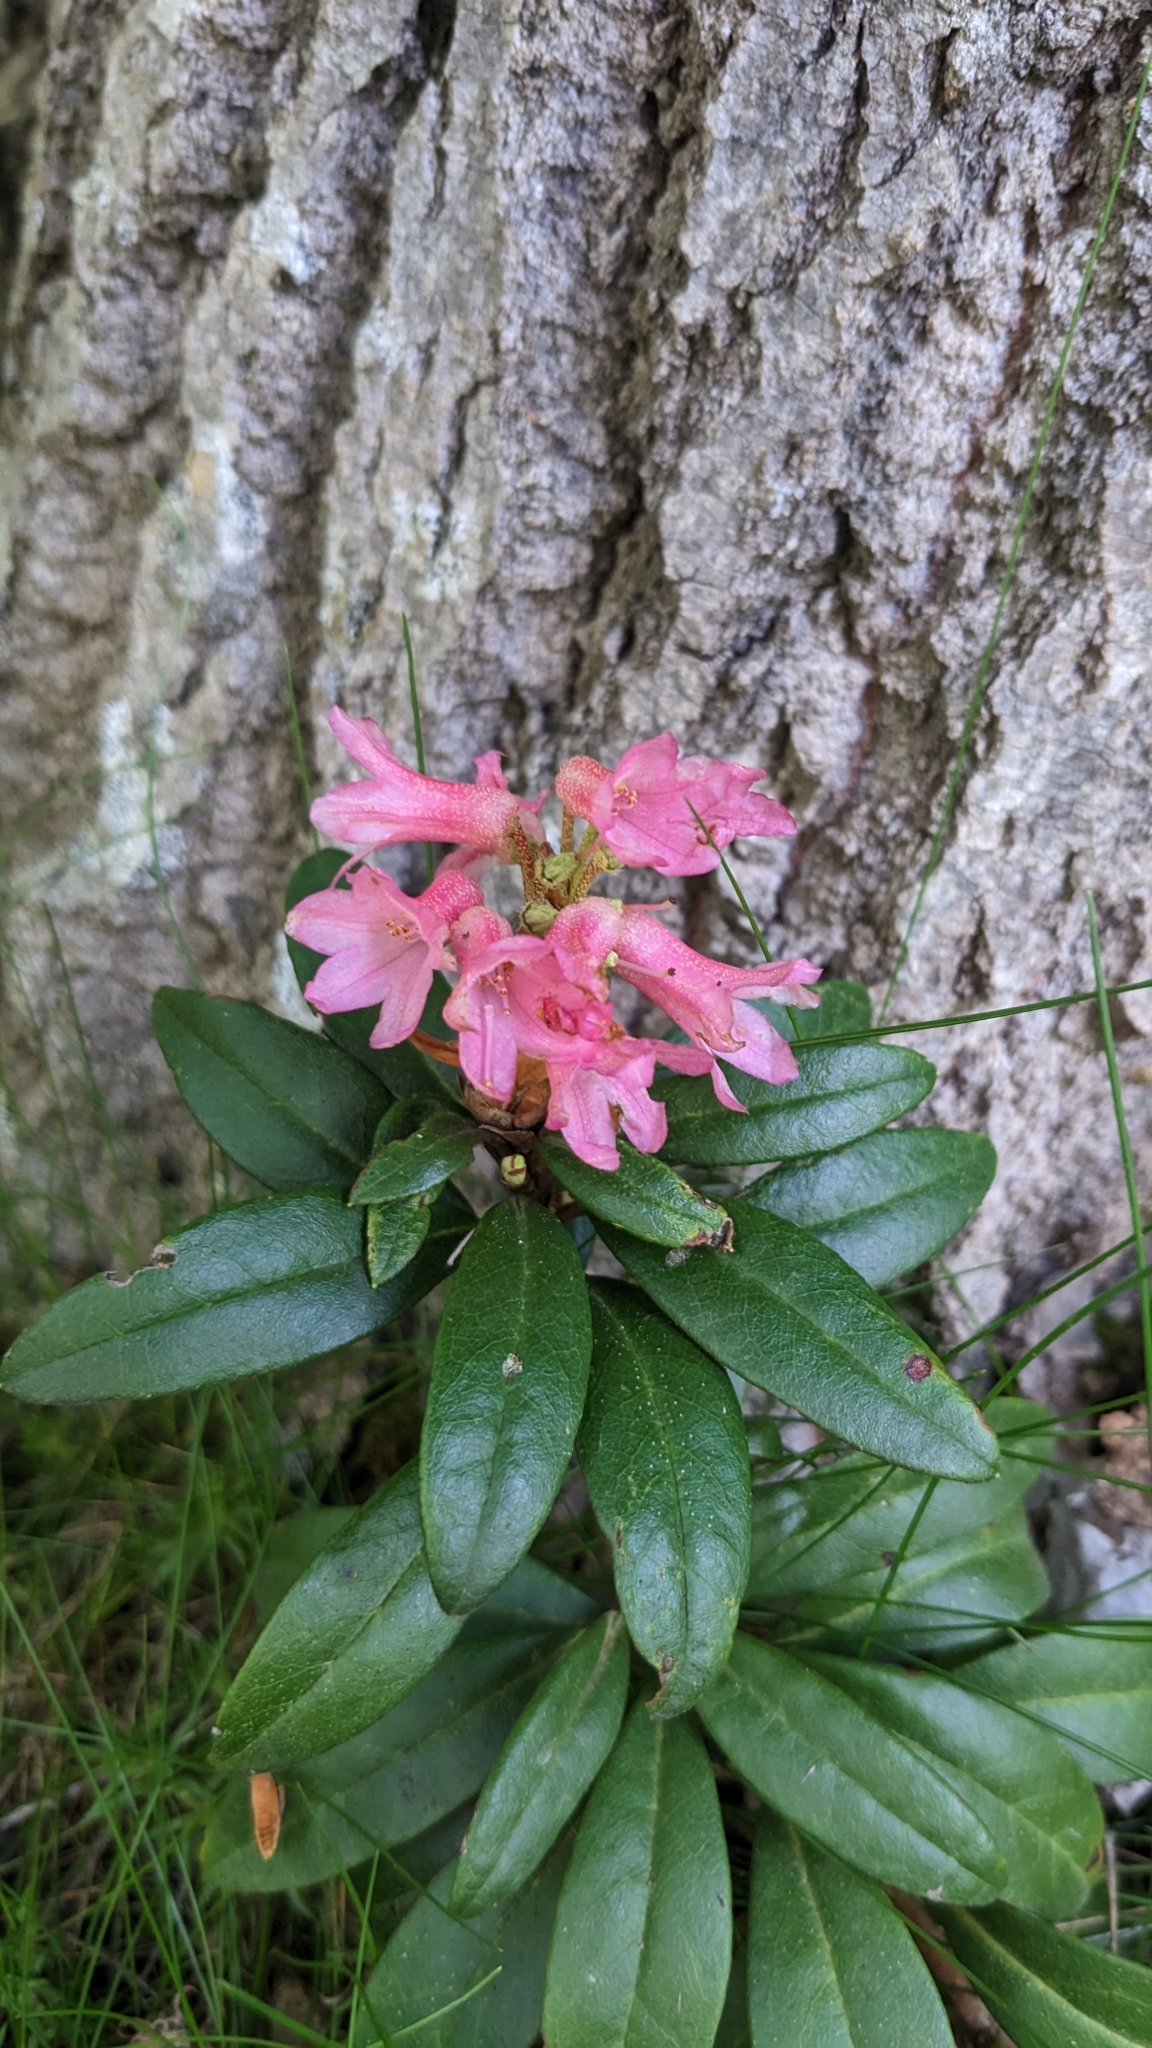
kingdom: Plantae
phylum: Tracheophyta
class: Magnoliopsida
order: Ericales
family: Ericaceae
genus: Rhododendron
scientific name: Rhododendron ferrugineum
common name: Alpenrose
